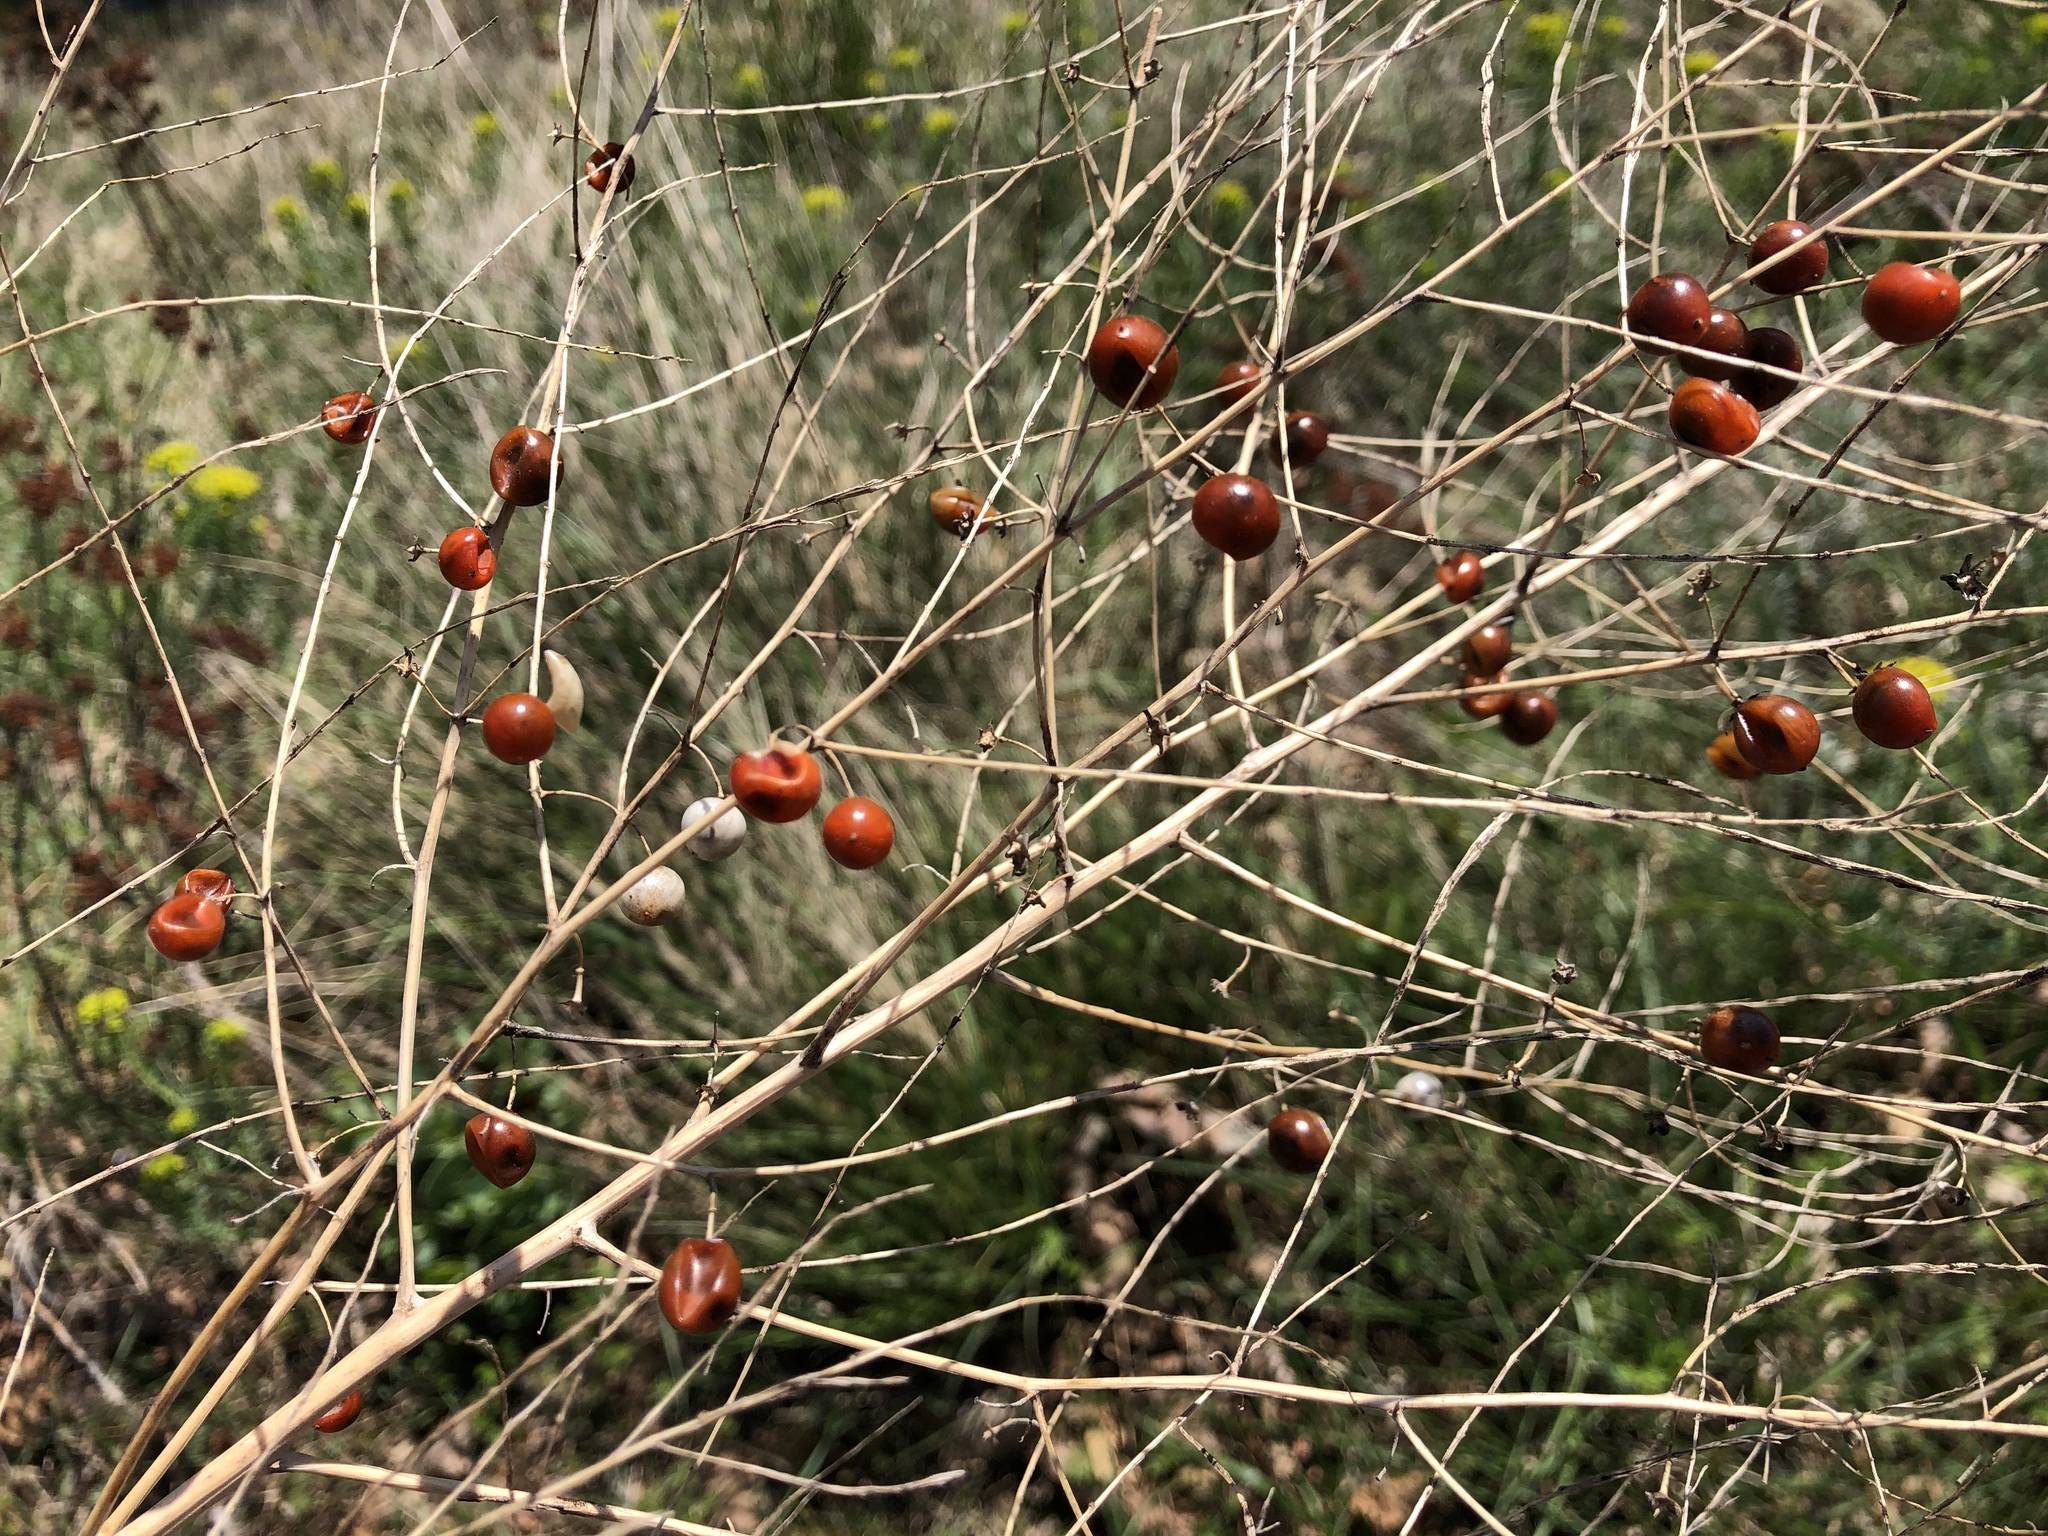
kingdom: Plantae
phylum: Tracheophyta
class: Liliopsida
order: Asparagales
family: Asparagaceae
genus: Asparagus
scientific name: Asparagus officinalis
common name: Garden asparagus
